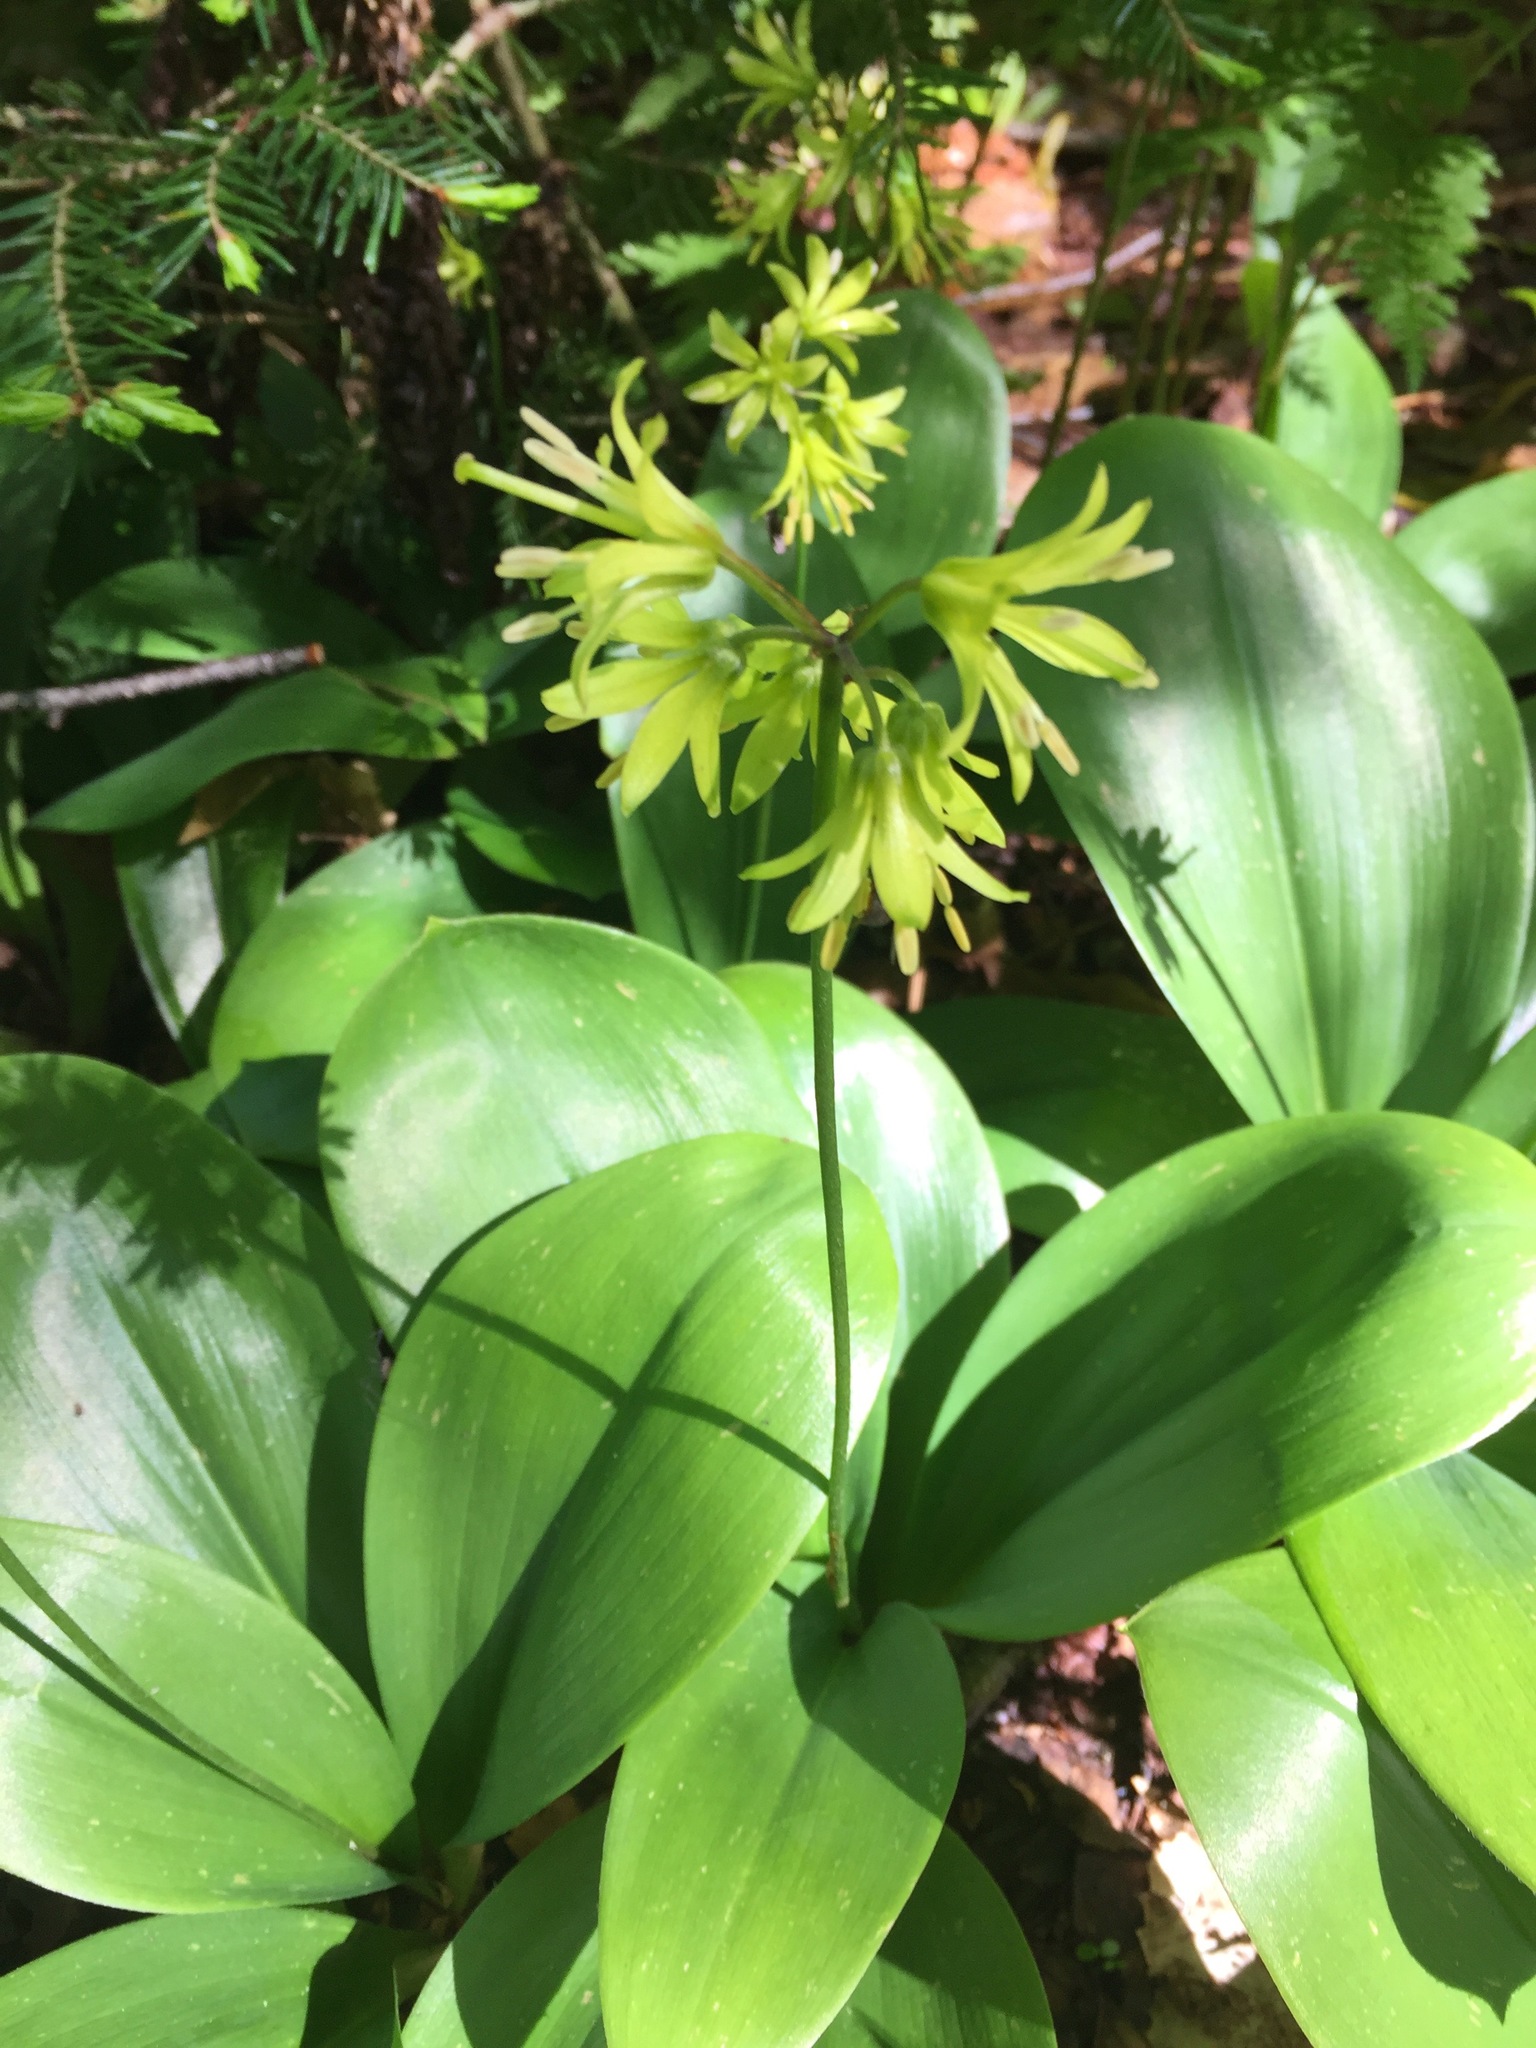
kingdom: Plantae
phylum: Tracheophyta
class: Liliopsida
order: Liliales
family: Liliaceae
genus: Clintonia
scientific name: Clintonia borealis
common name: Yellow clintonia
